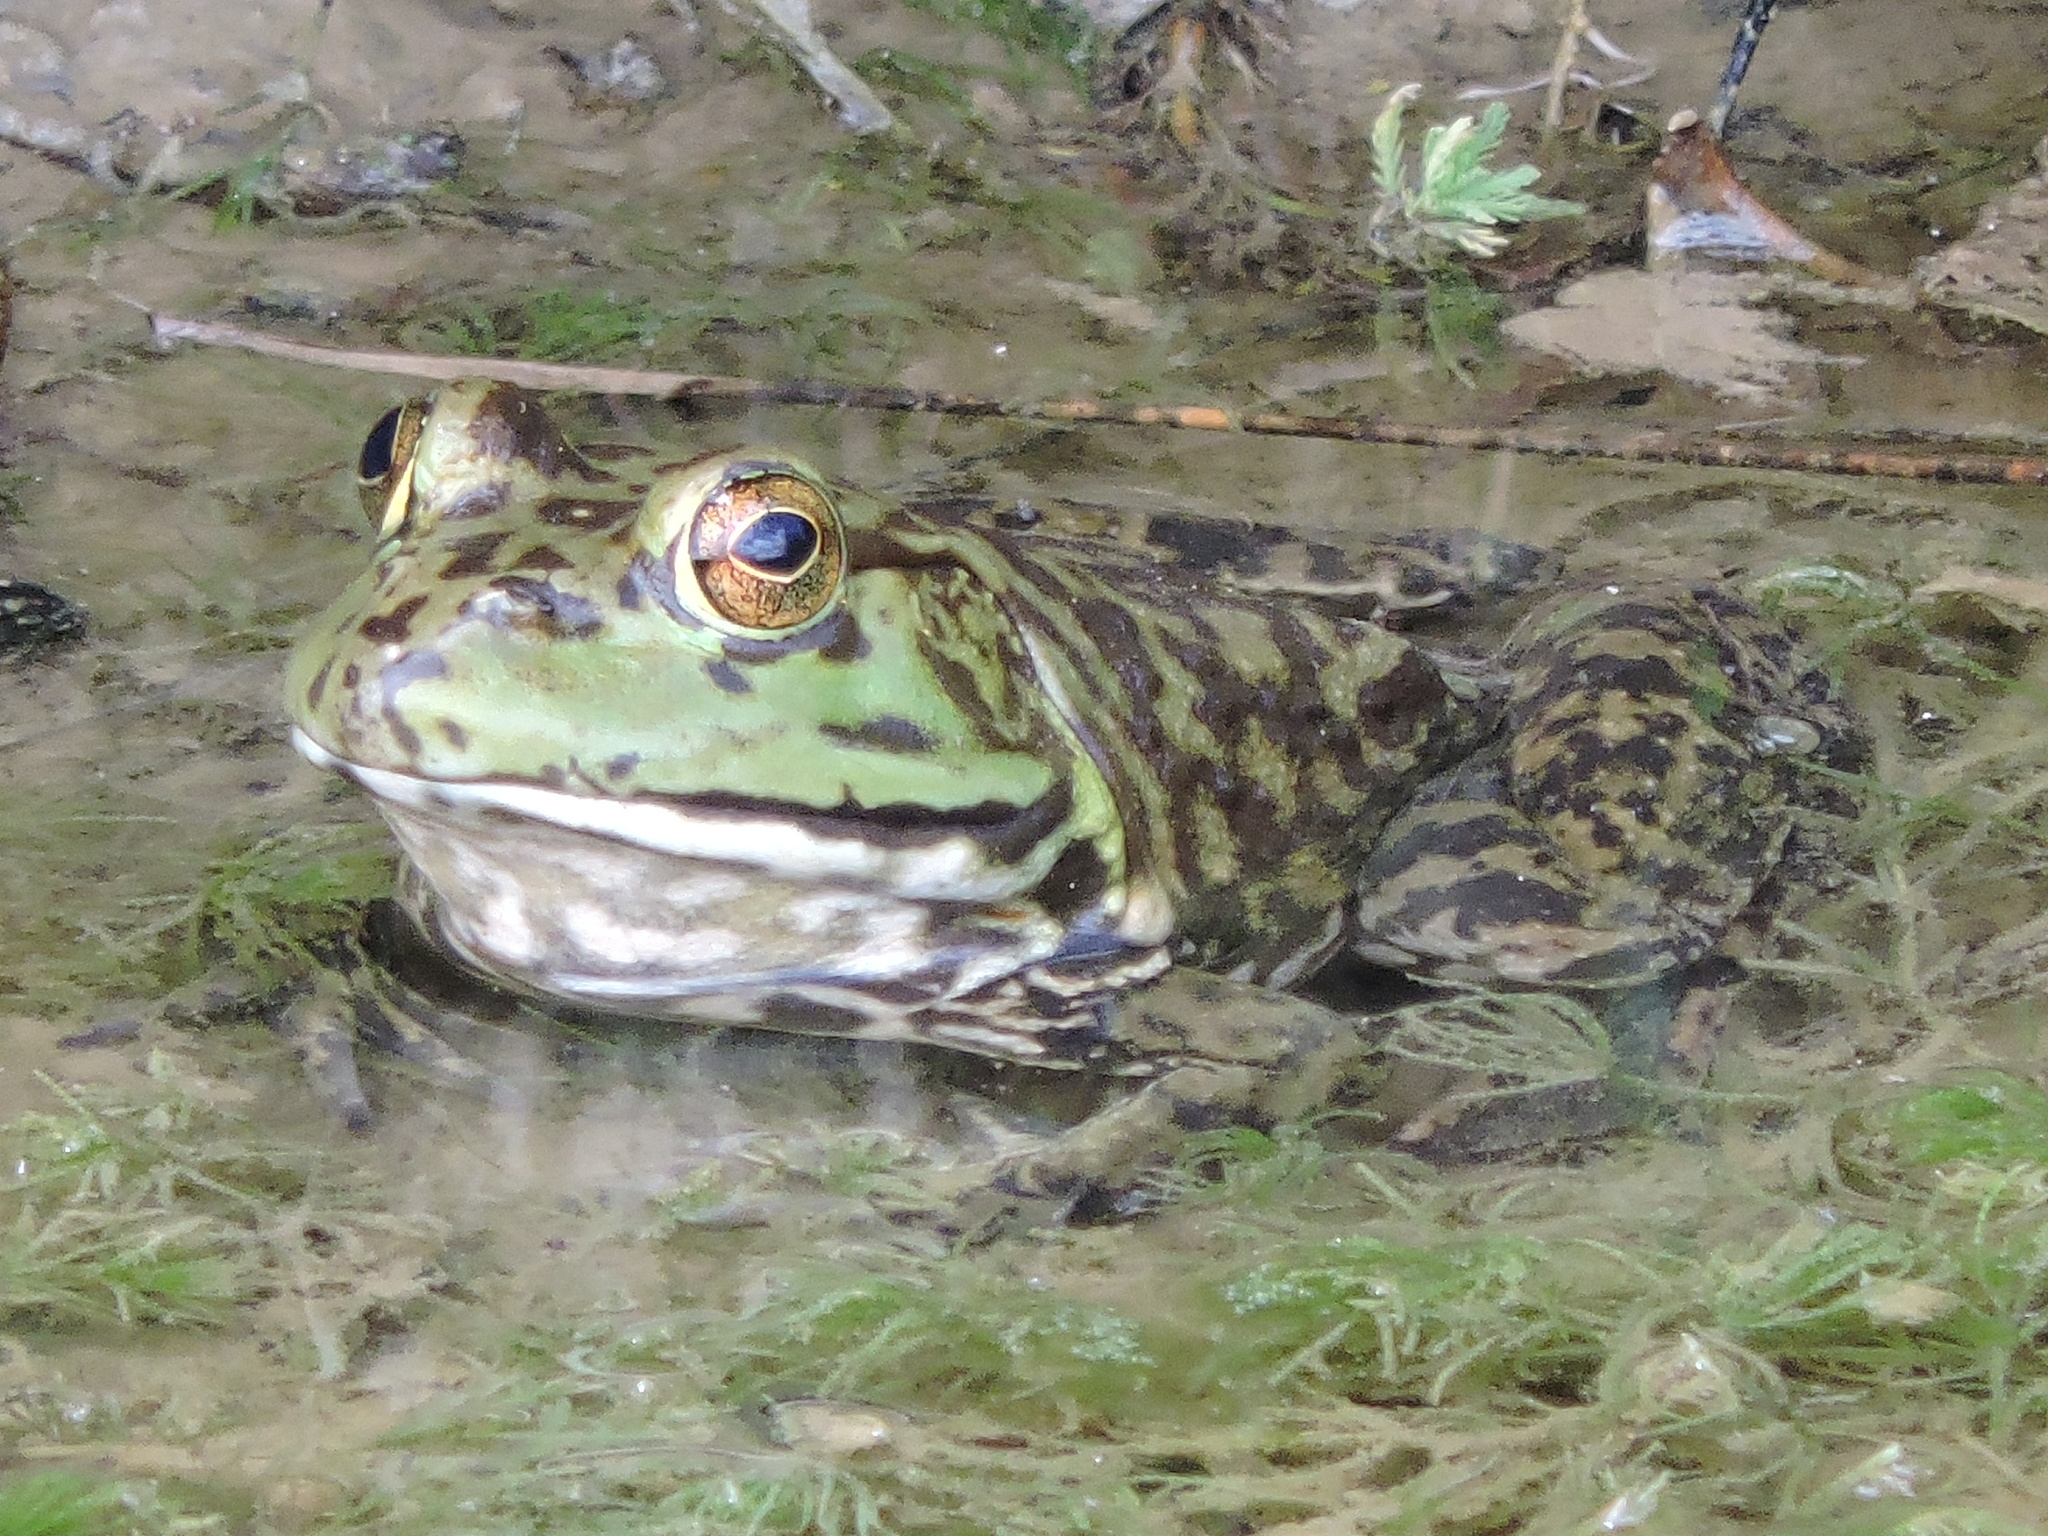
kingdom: Animalia
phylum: Chordata
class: Amphibia
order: Anura
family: Ranidae
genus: Lithobates
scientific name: Lithobates catesbeianus
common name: American bullfrog
